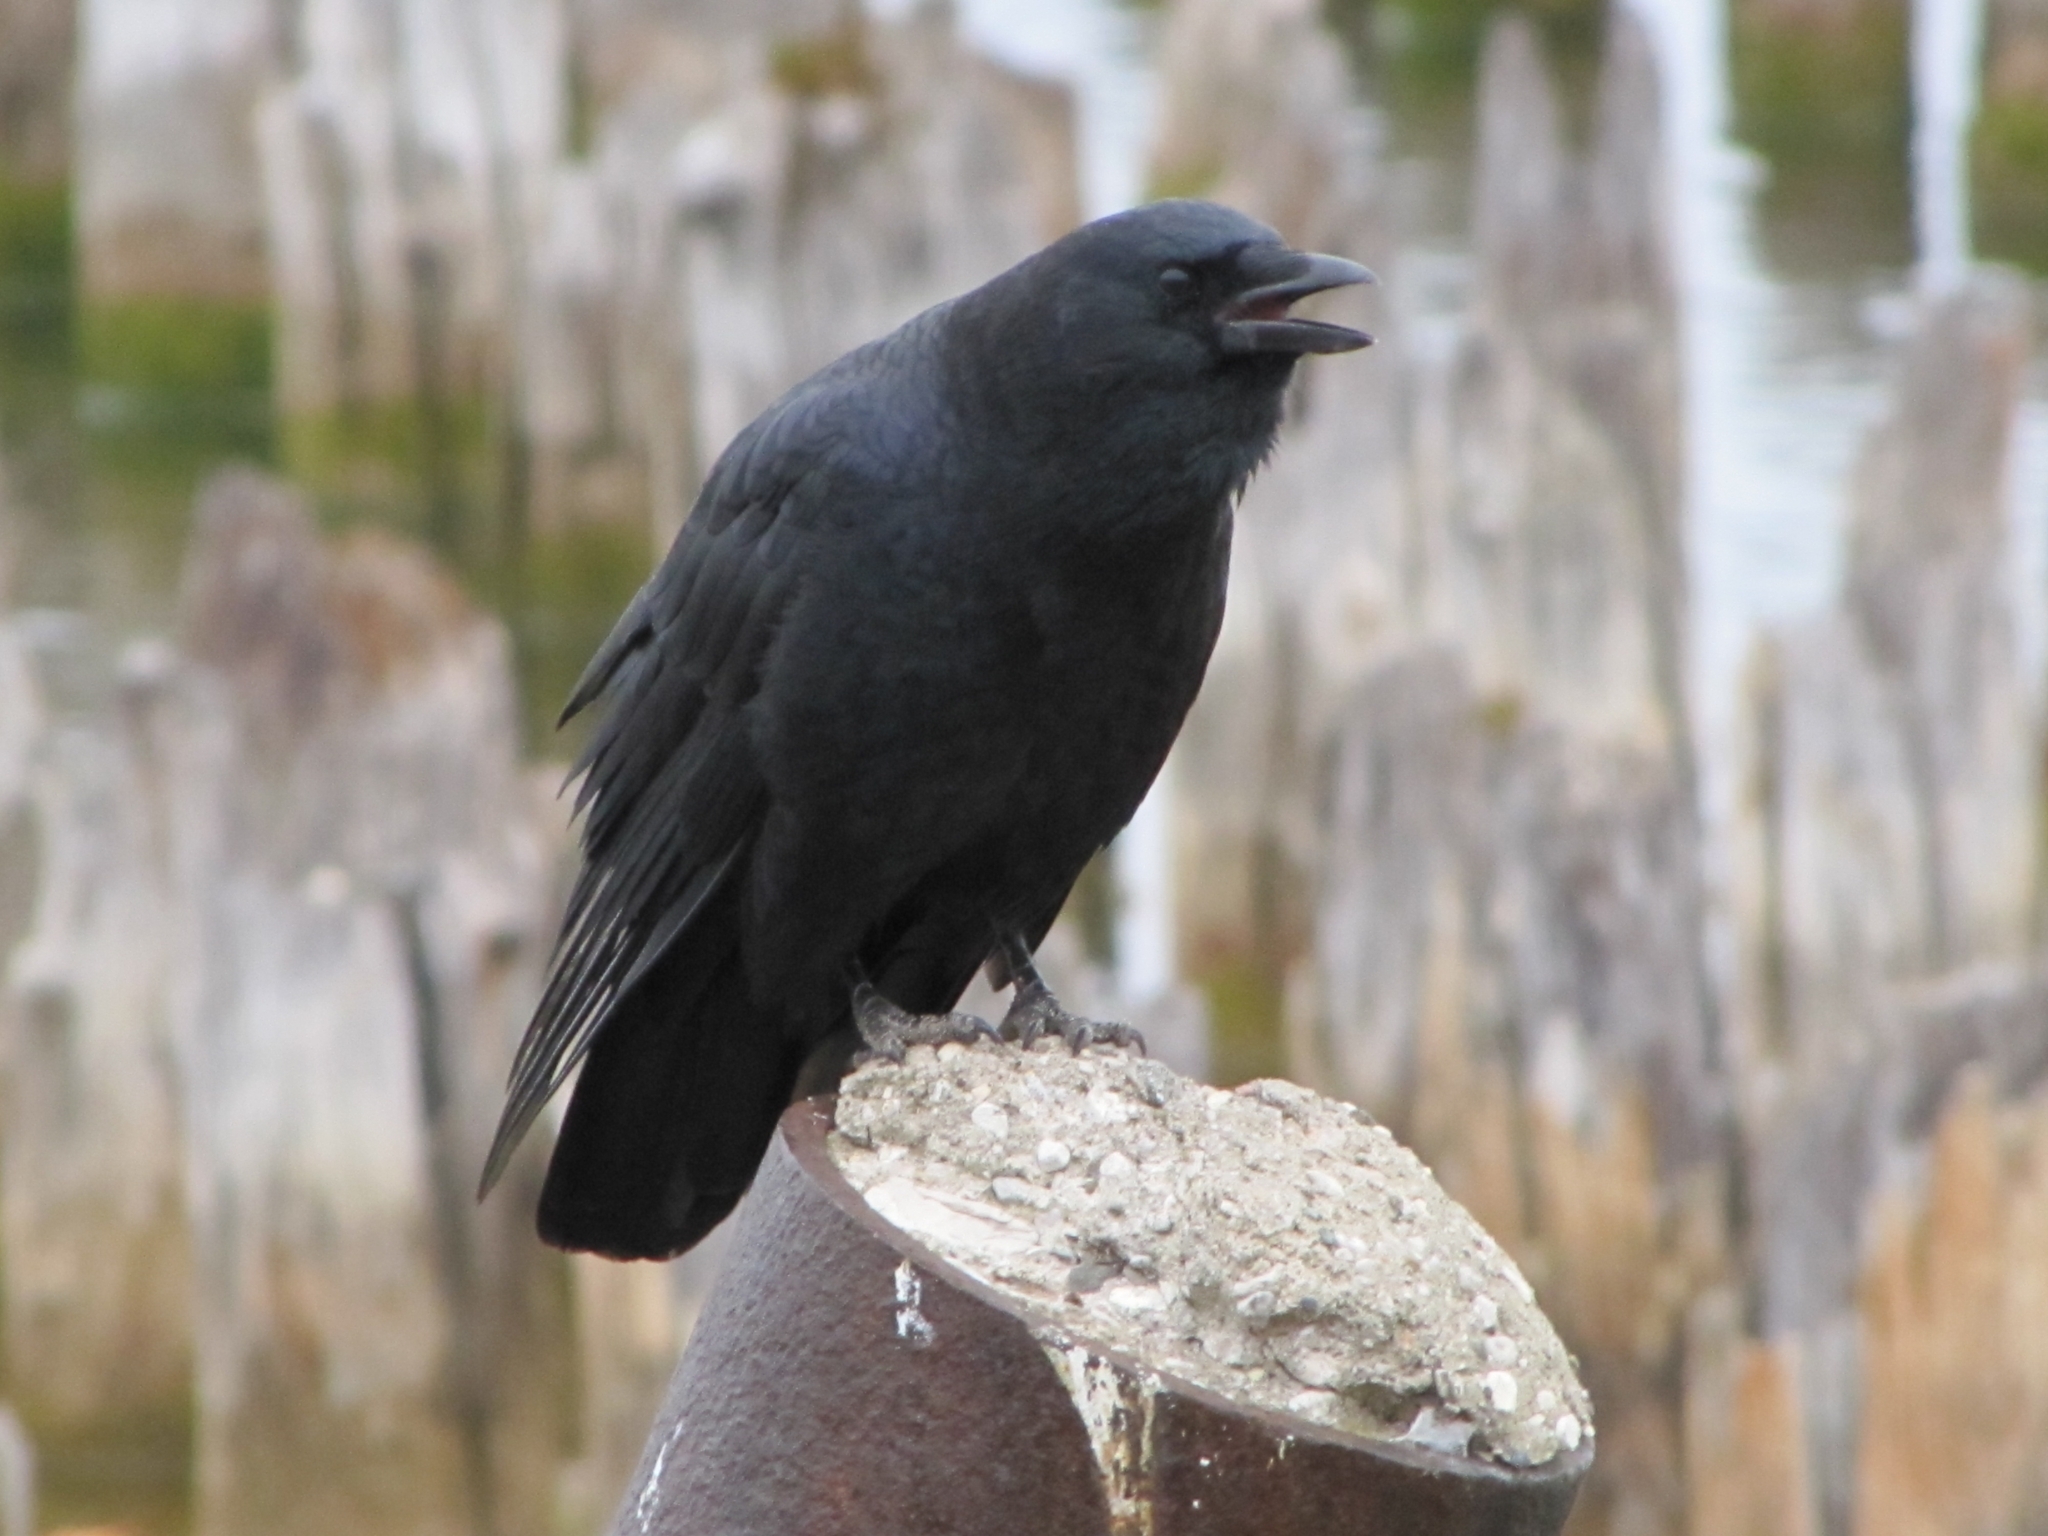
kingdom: Animalia
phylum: Chordata
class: Aves
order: Passeriformes
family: Corvidae
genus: Corvus
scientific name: Corvus brachyrhynchos
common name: American crow
